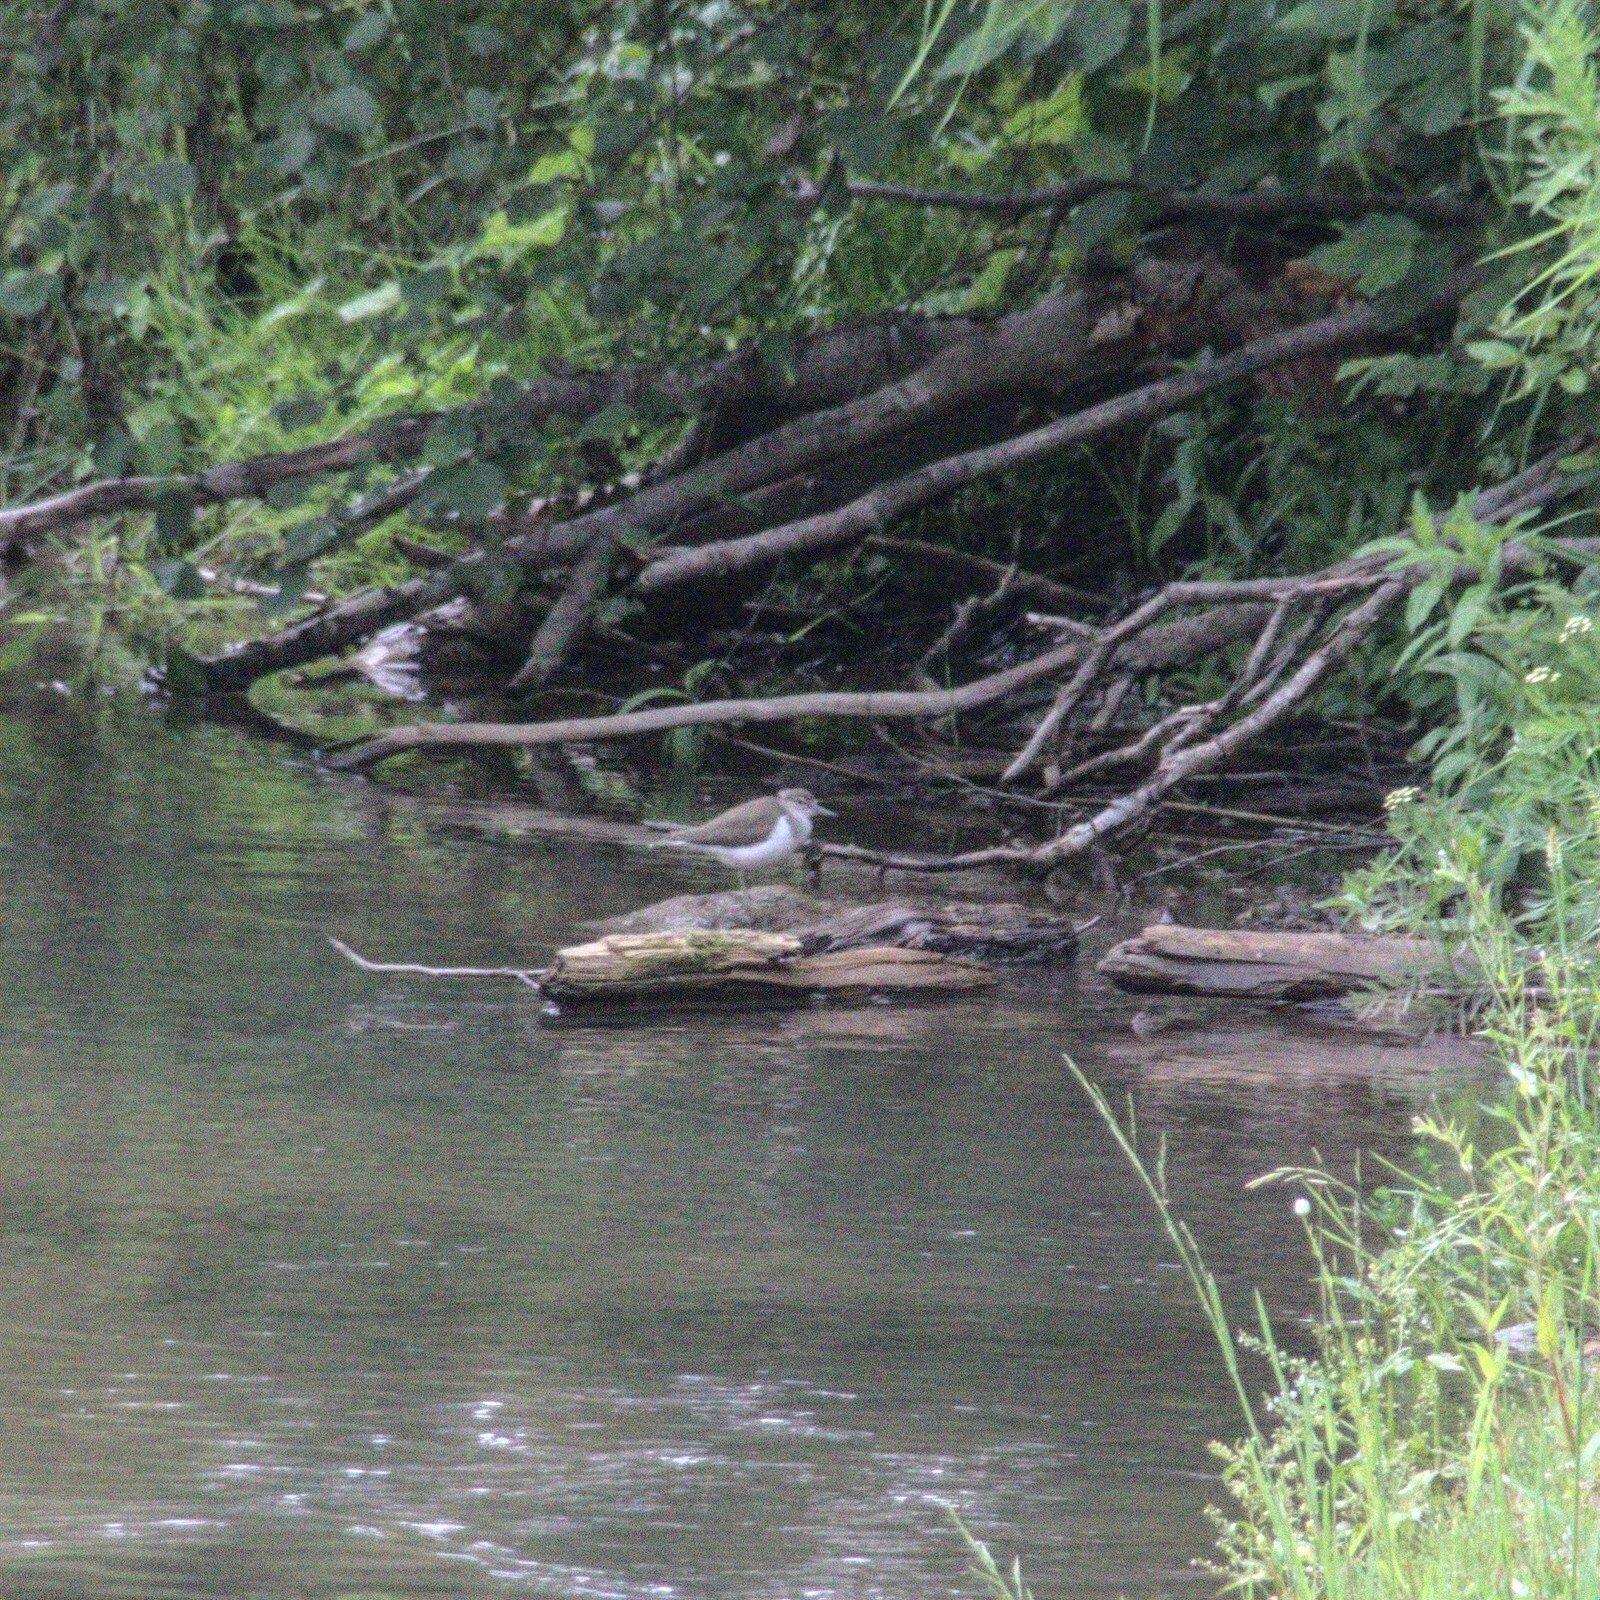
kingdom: Animalia
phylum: Chordata
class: Aves
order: Charadriiformes
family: Scolopacidae
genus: Actitis
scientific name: Actitis hypoleucos
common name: Common sandpiper
